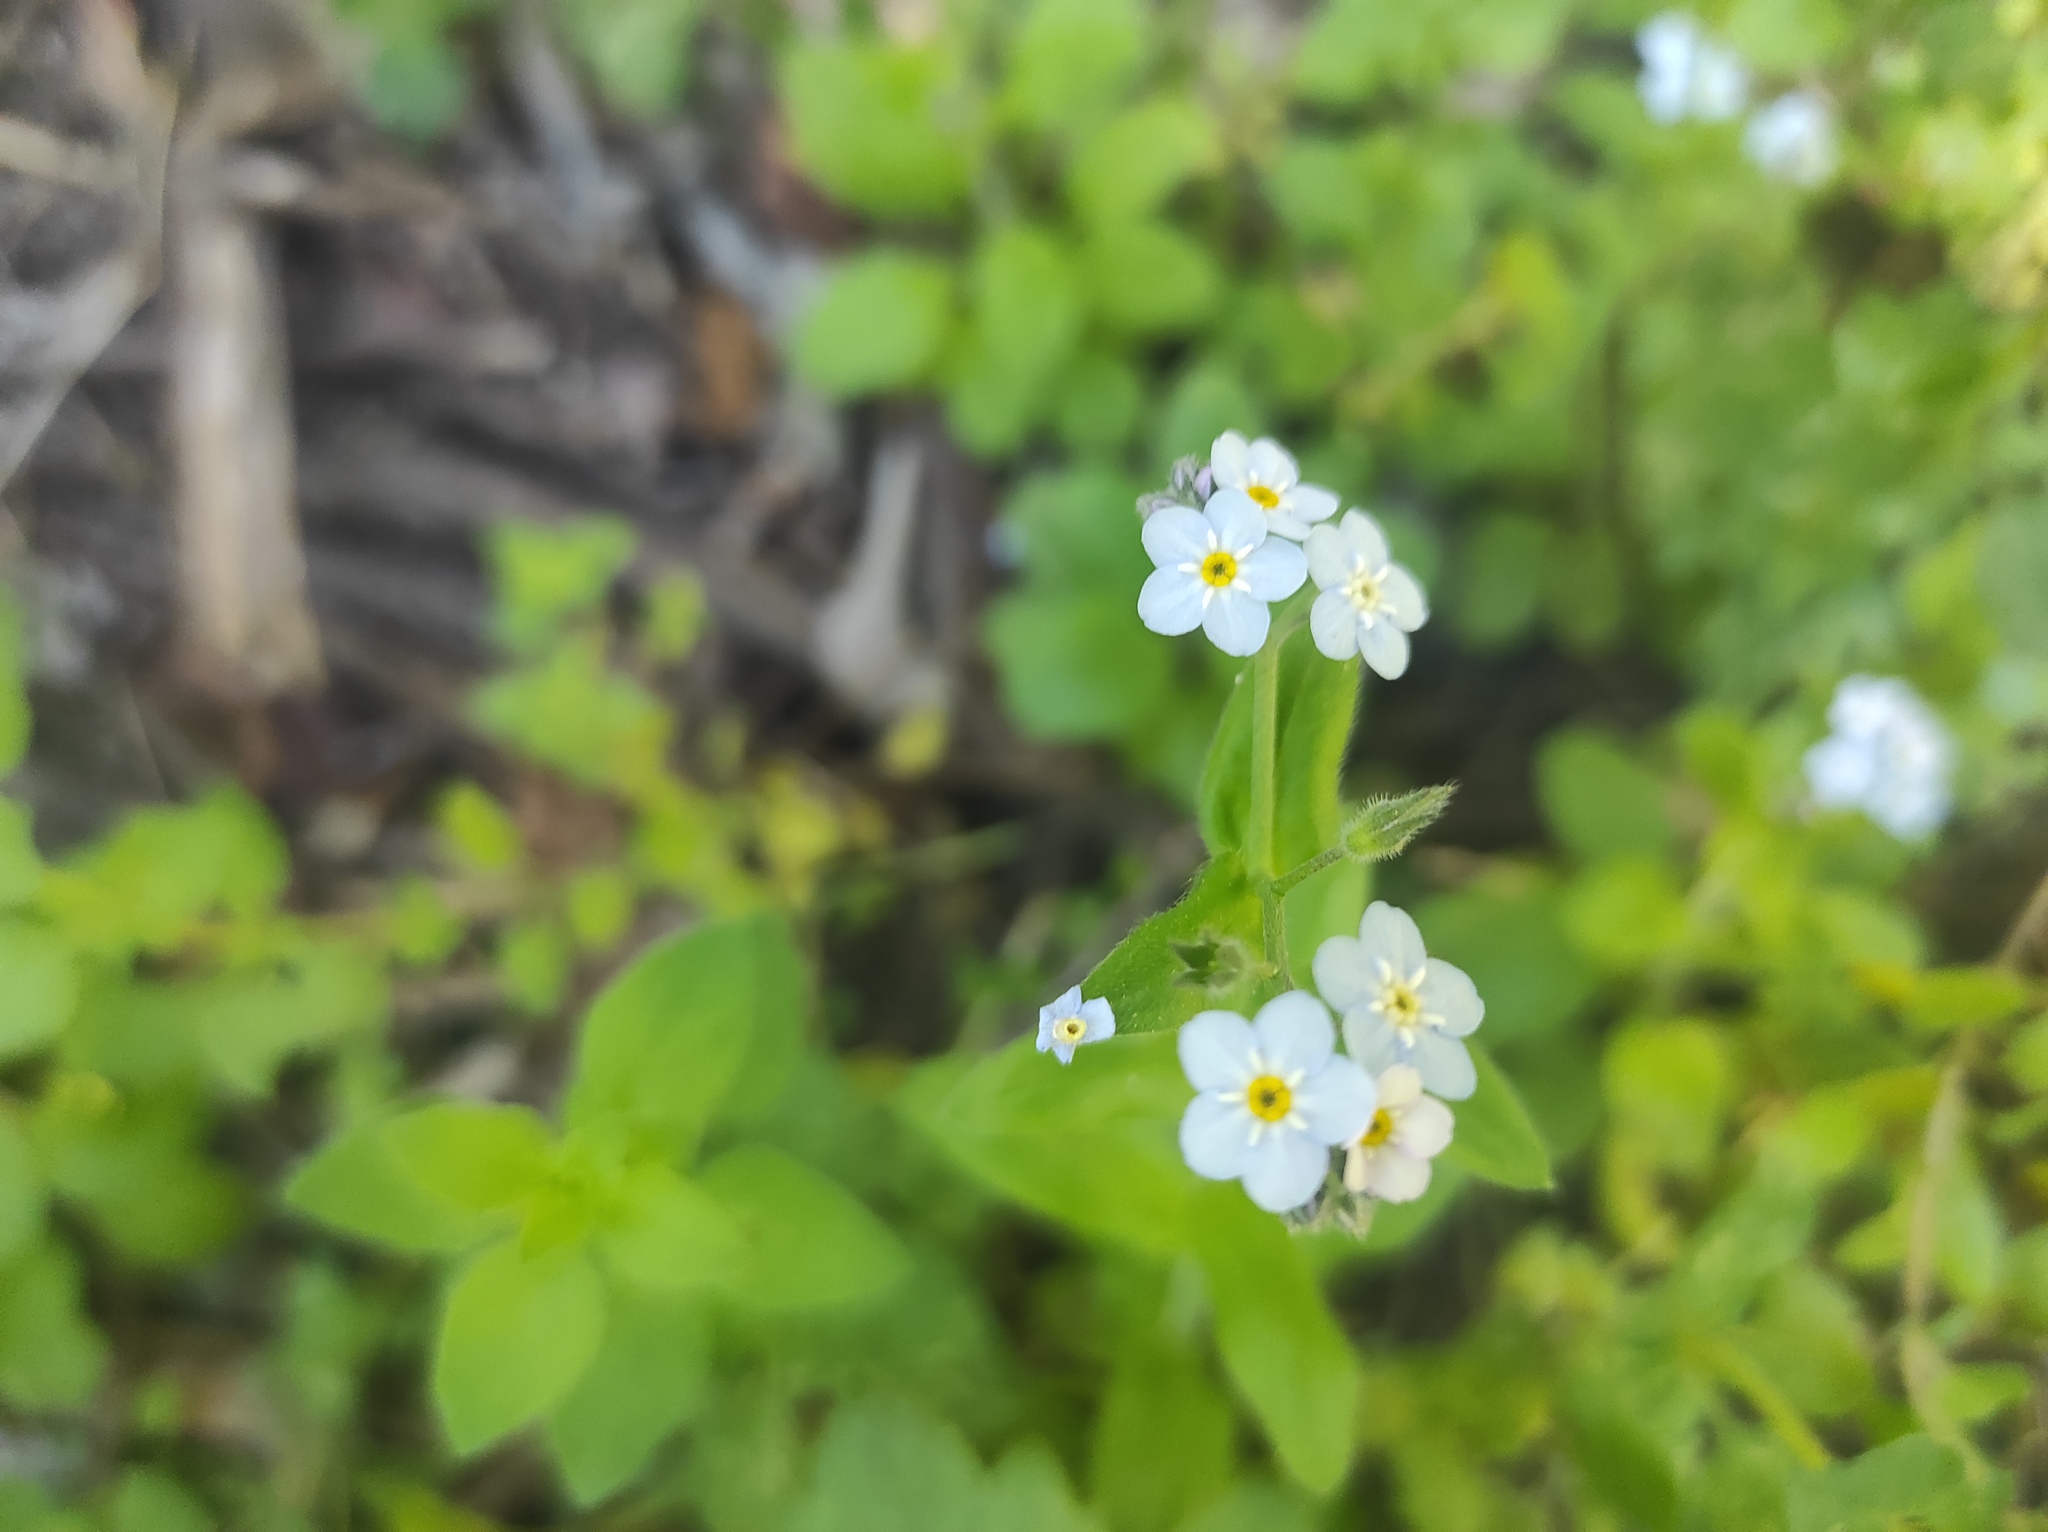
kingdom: Plantae
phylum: Tracheophyta
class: Magnoliopsida
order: Boraginales
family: Boraginaceae
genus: Myosotis
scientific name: Myosotis latifolia
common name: Broadleaf forget-me-not
